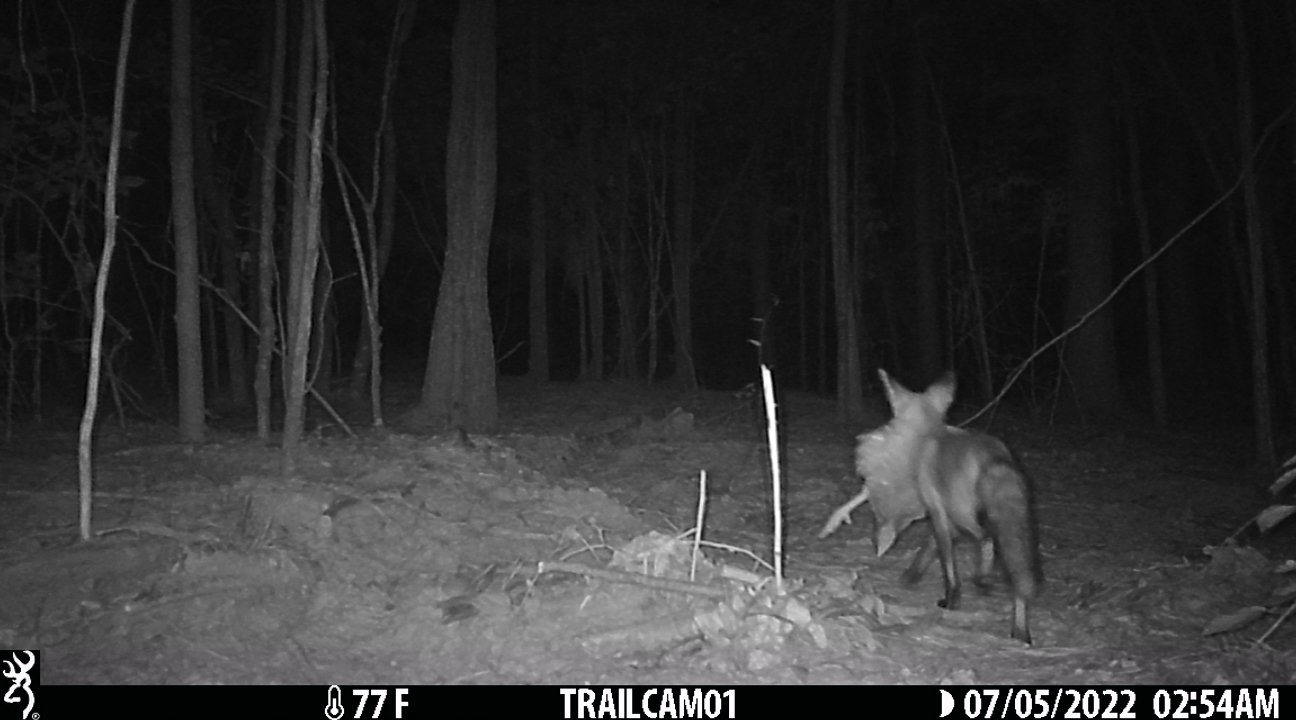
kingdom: Animalia
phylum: Chordata
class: Mammalia
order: Carnivora
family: Canidae
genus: Vulpes
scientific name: Vulpes vulpes
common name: Red fox
